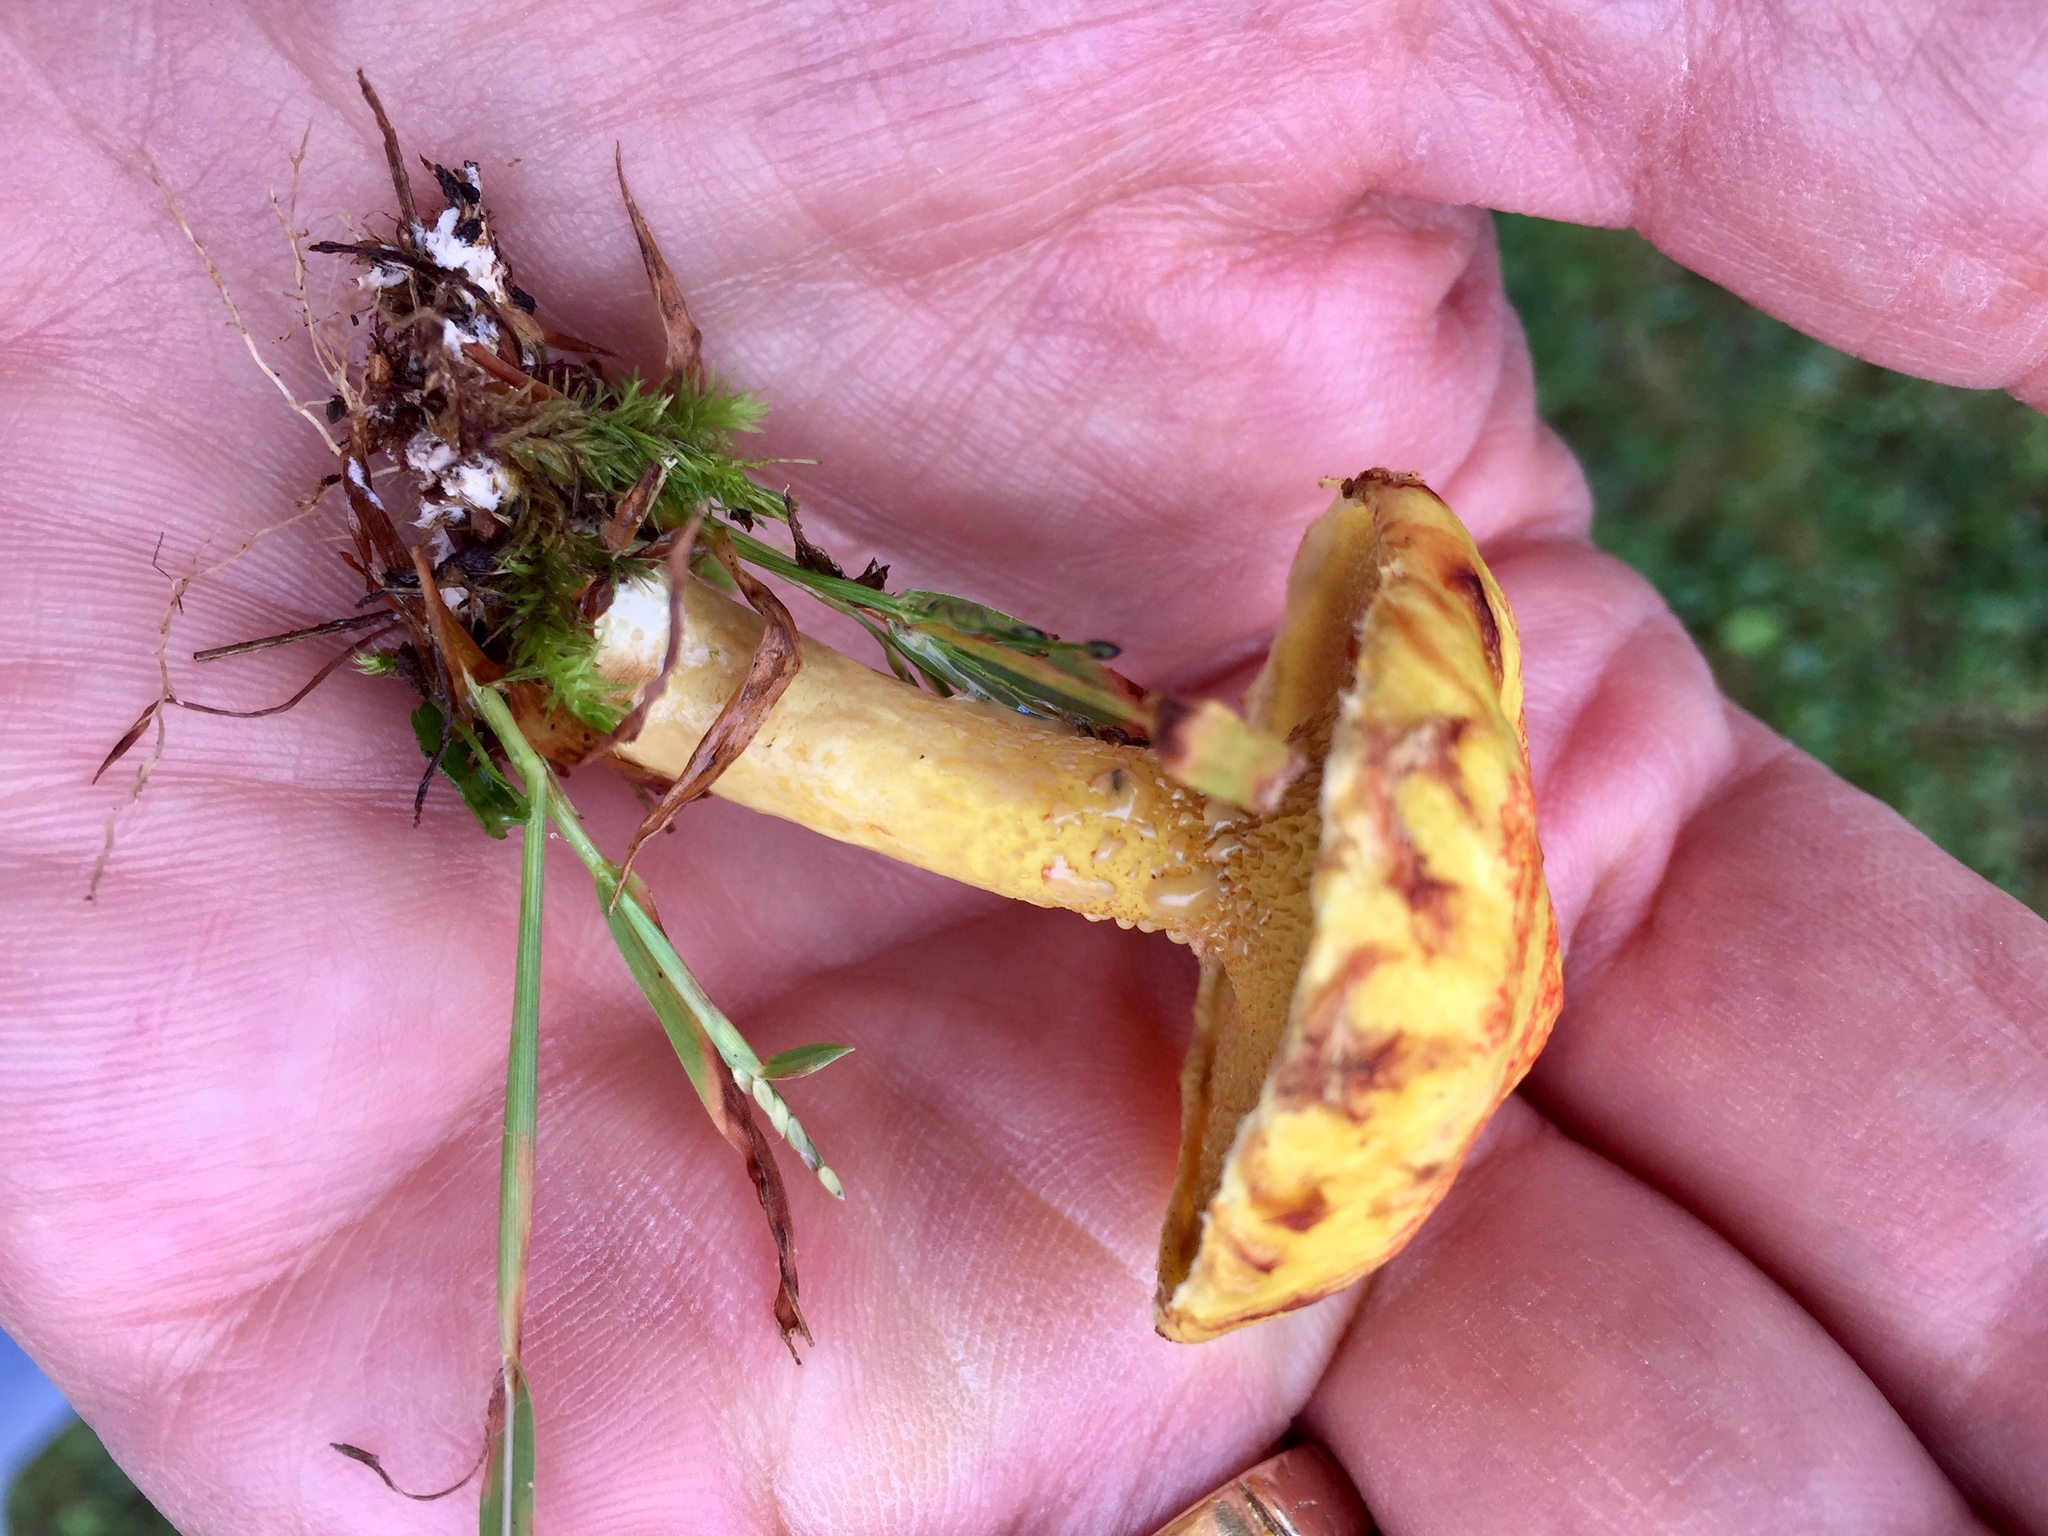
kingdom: Fungi
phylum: Basidiomycota
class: Agaricomycetes
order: Boletales
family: Suillaceae
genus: Suillus
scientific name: Suillus americanus
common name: Chicken fat mushroom
